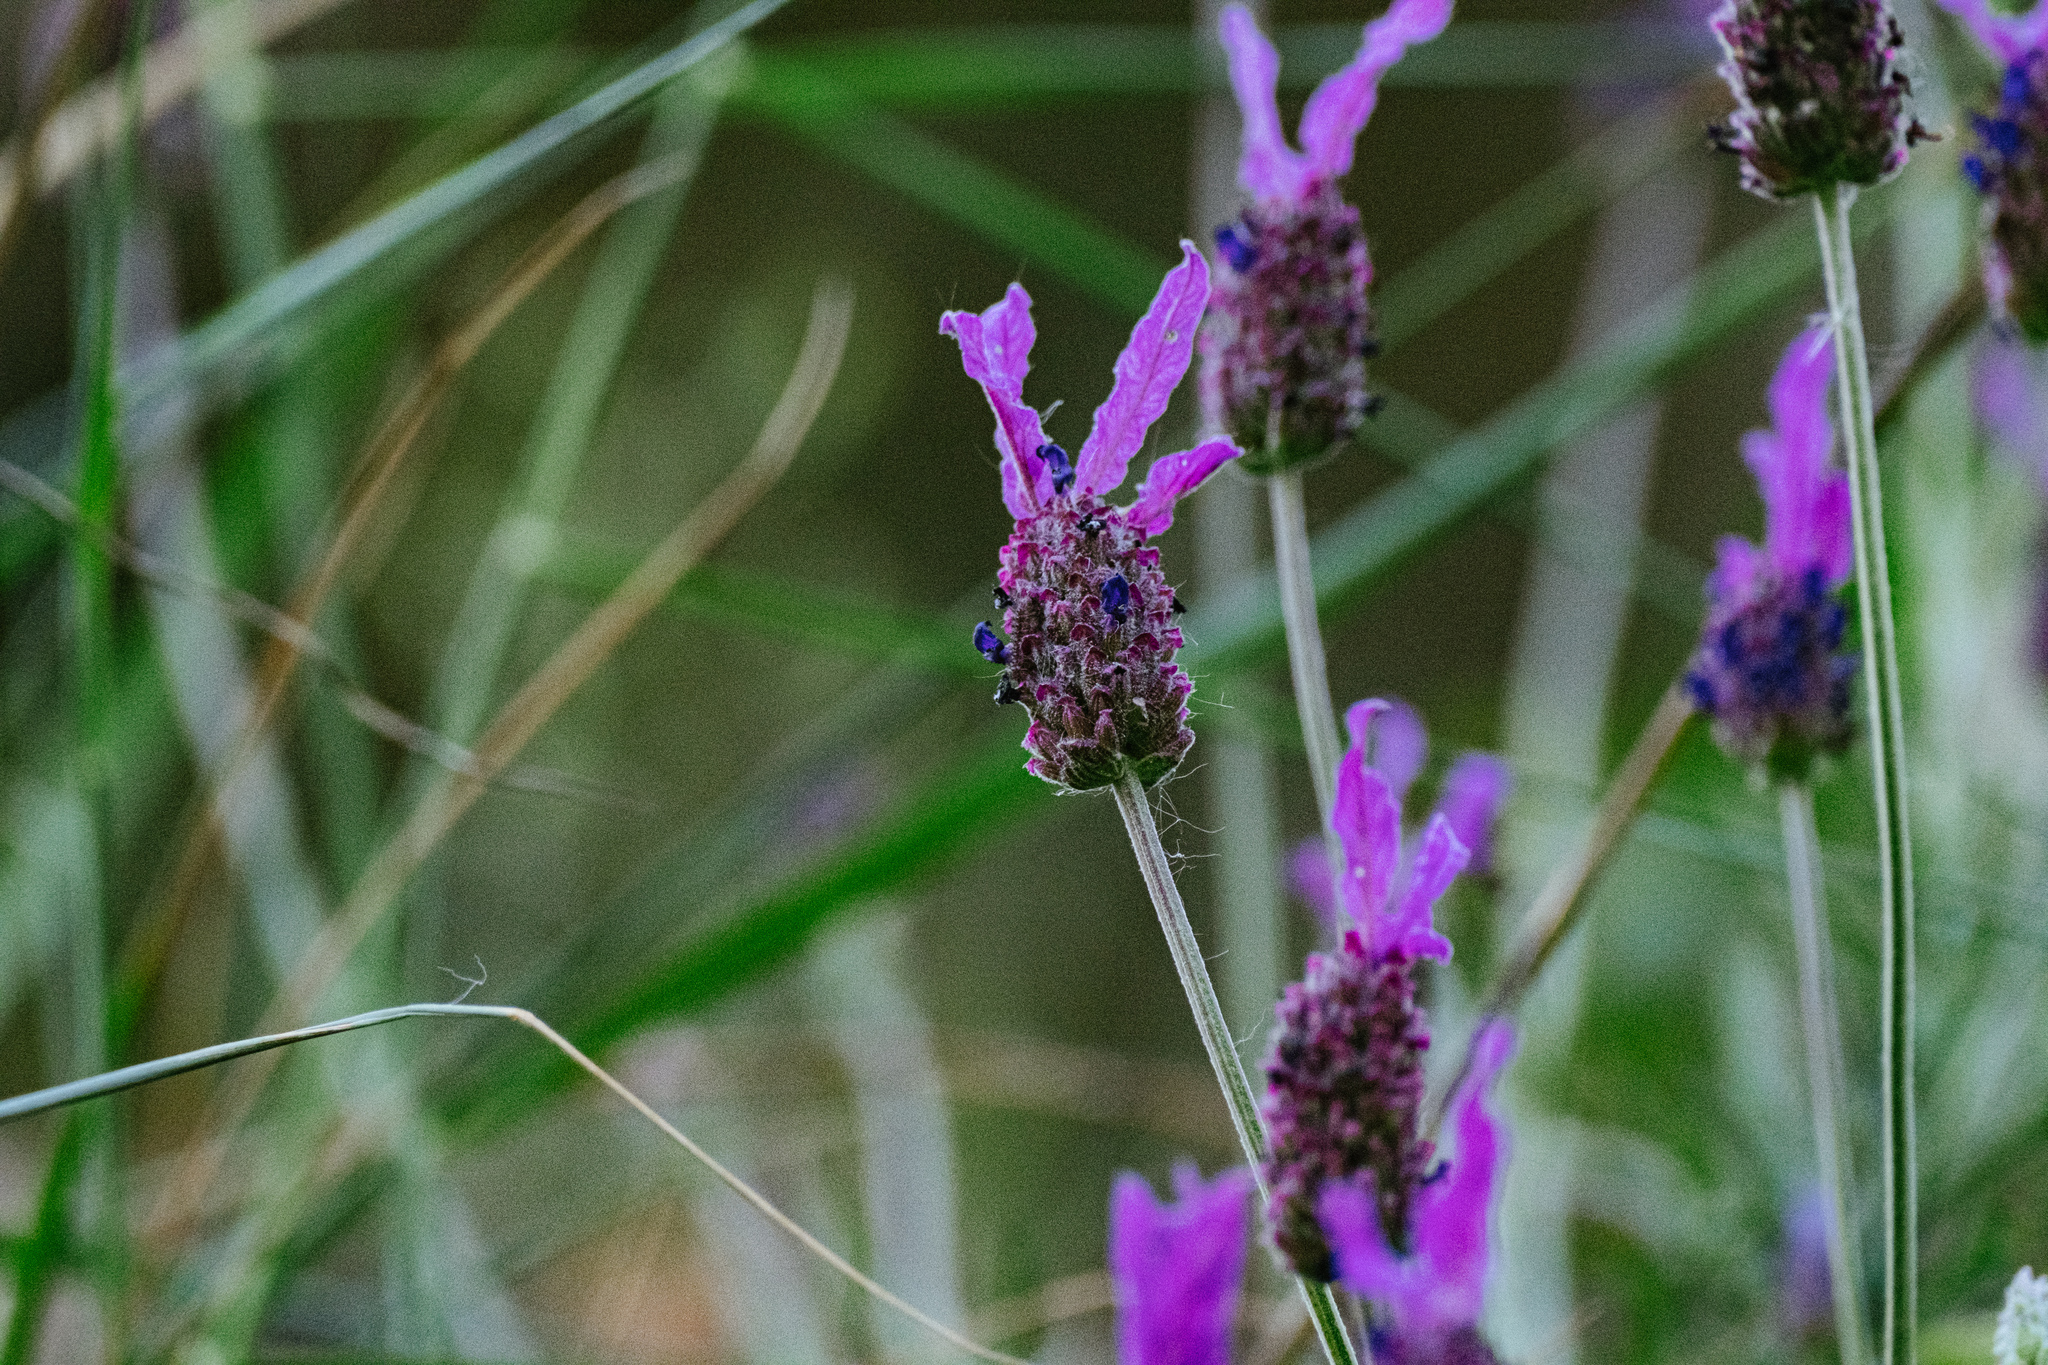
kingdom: Plantae
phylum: Tracheophyta
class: Magnoliopsida
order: Lamiales
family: Lamiaceae
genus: Lavandula
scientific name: Lavandula pedunculata
